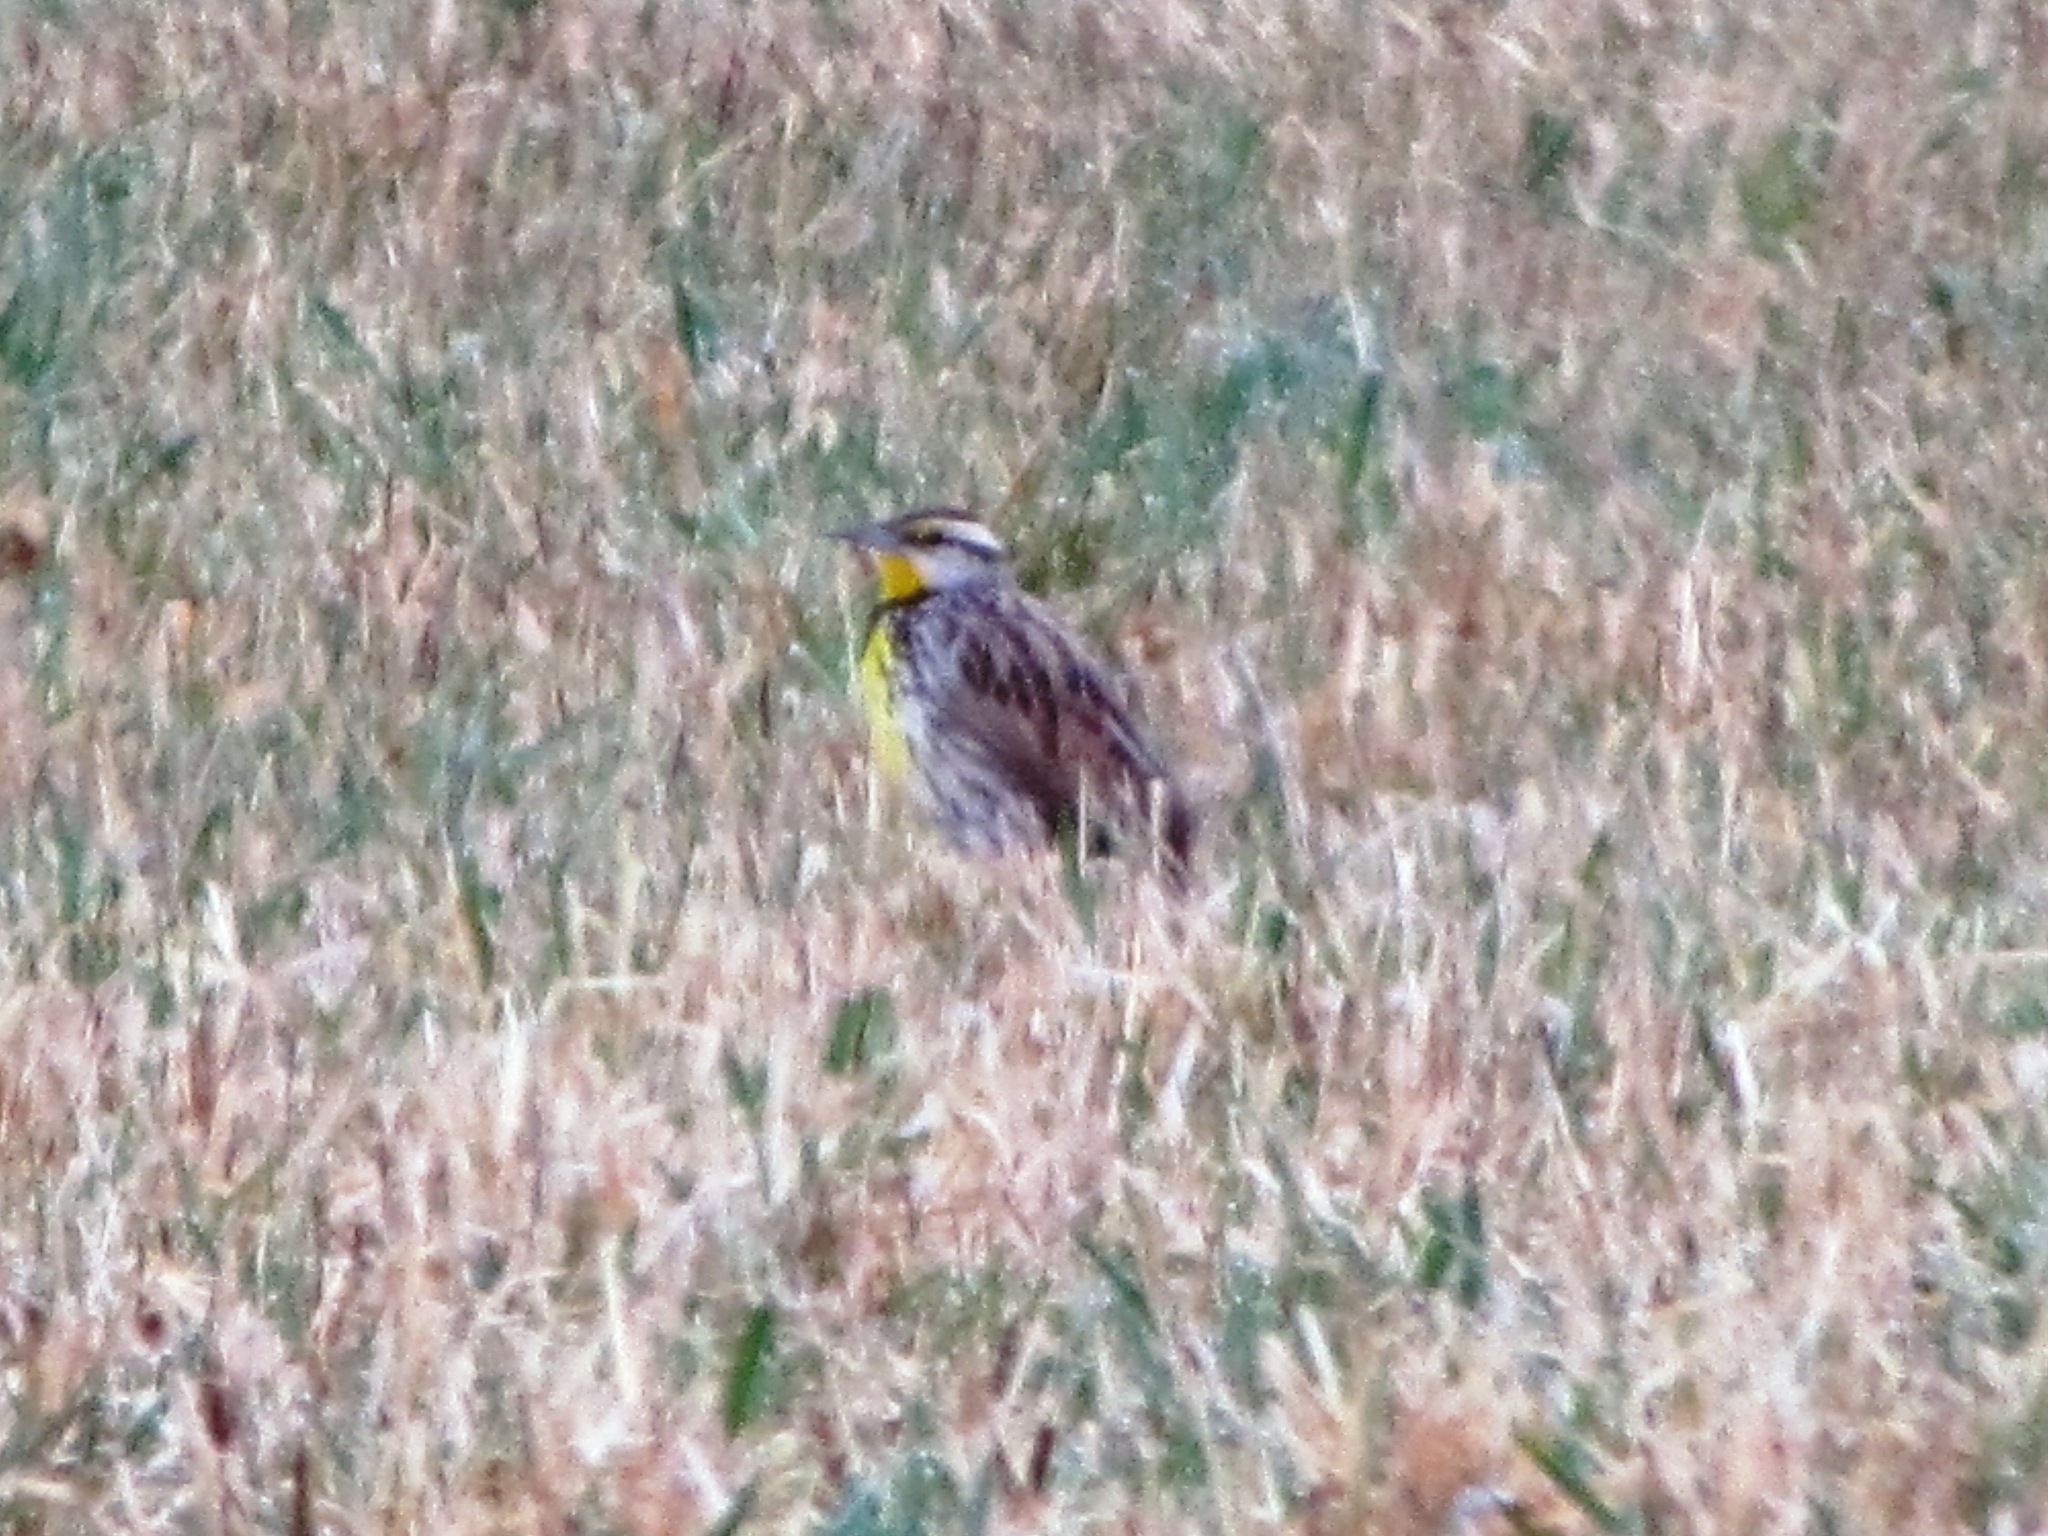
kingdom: Animalia
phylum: Chordata
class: Aves
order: Passeriformes
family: Icteridae
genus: Sturnella
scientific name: Sturnella magna
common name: Eastern meadowlark
